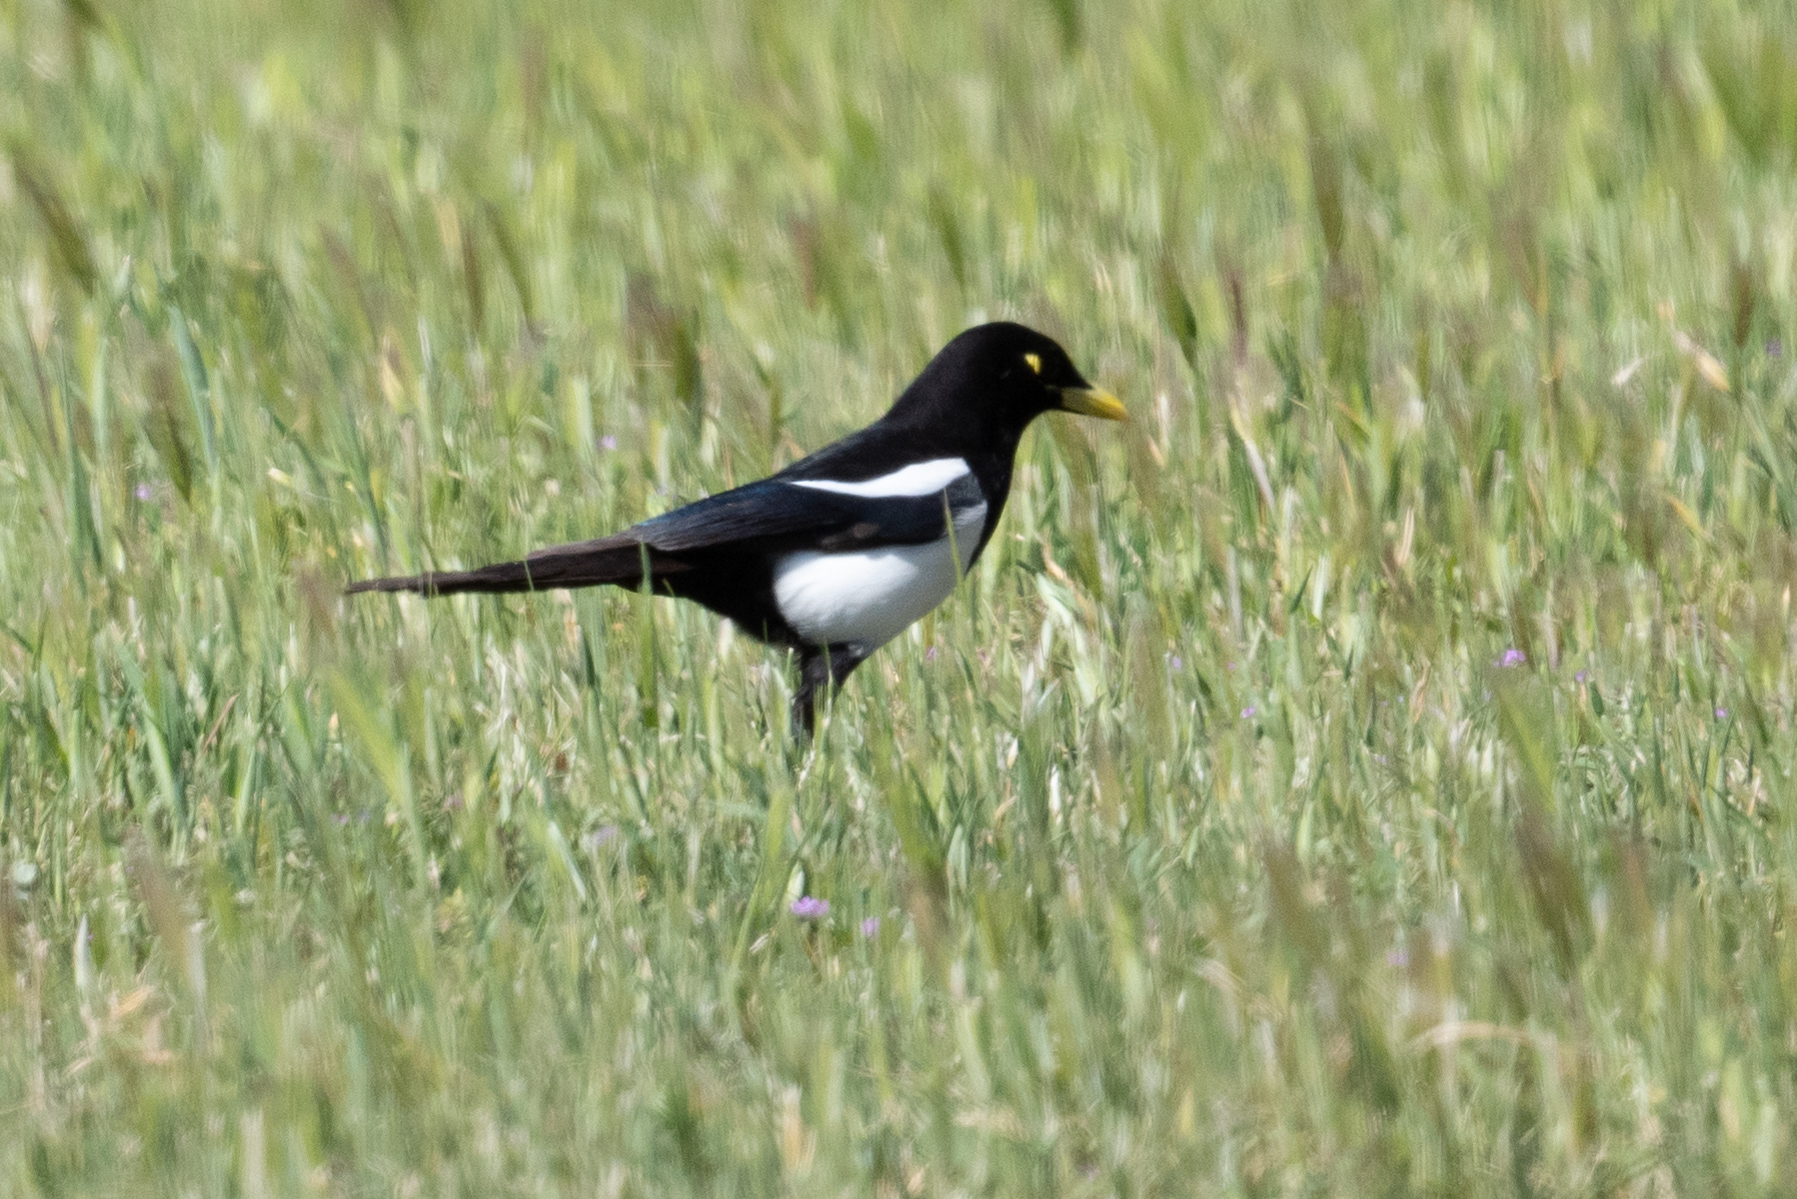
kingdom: Animalia
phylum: Chordata
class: Aves
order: Passeriformes
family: Corvidae
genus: Pica
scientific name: Pica nuttalli
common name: Yellow-billed magpie
